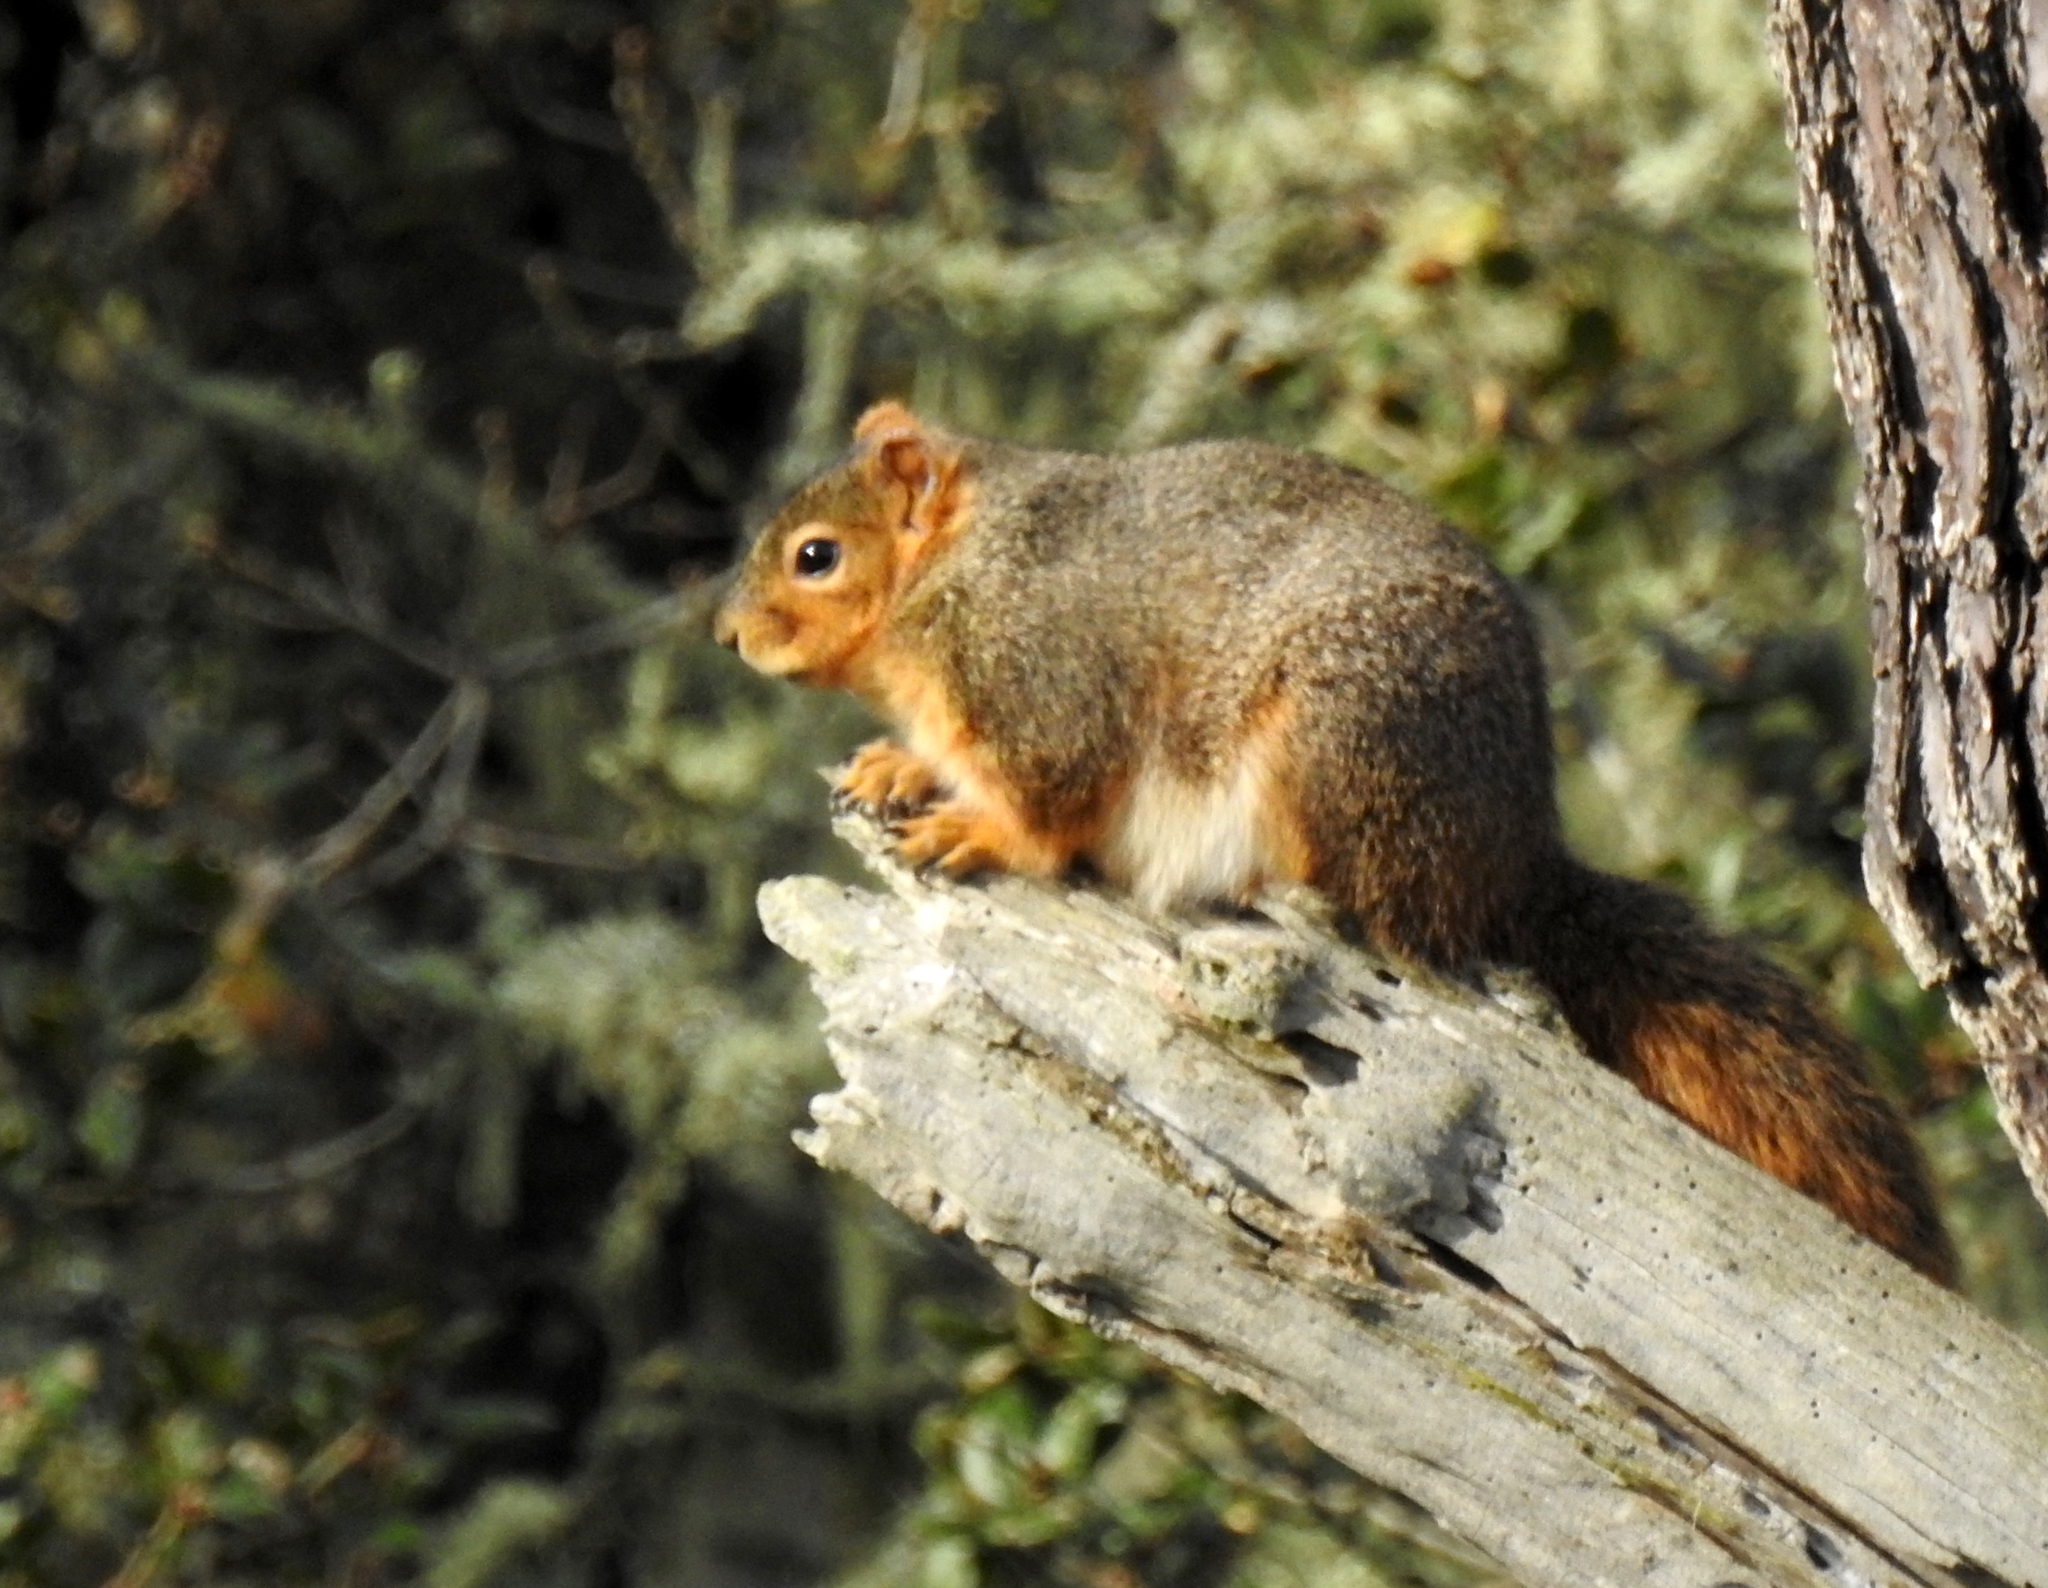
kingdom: Animalia
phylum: Chordata
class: Mammalia
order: Rodentia
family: Sciuridae
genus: Sciurus
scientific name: Sciurus niger
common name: Fox squirrel
